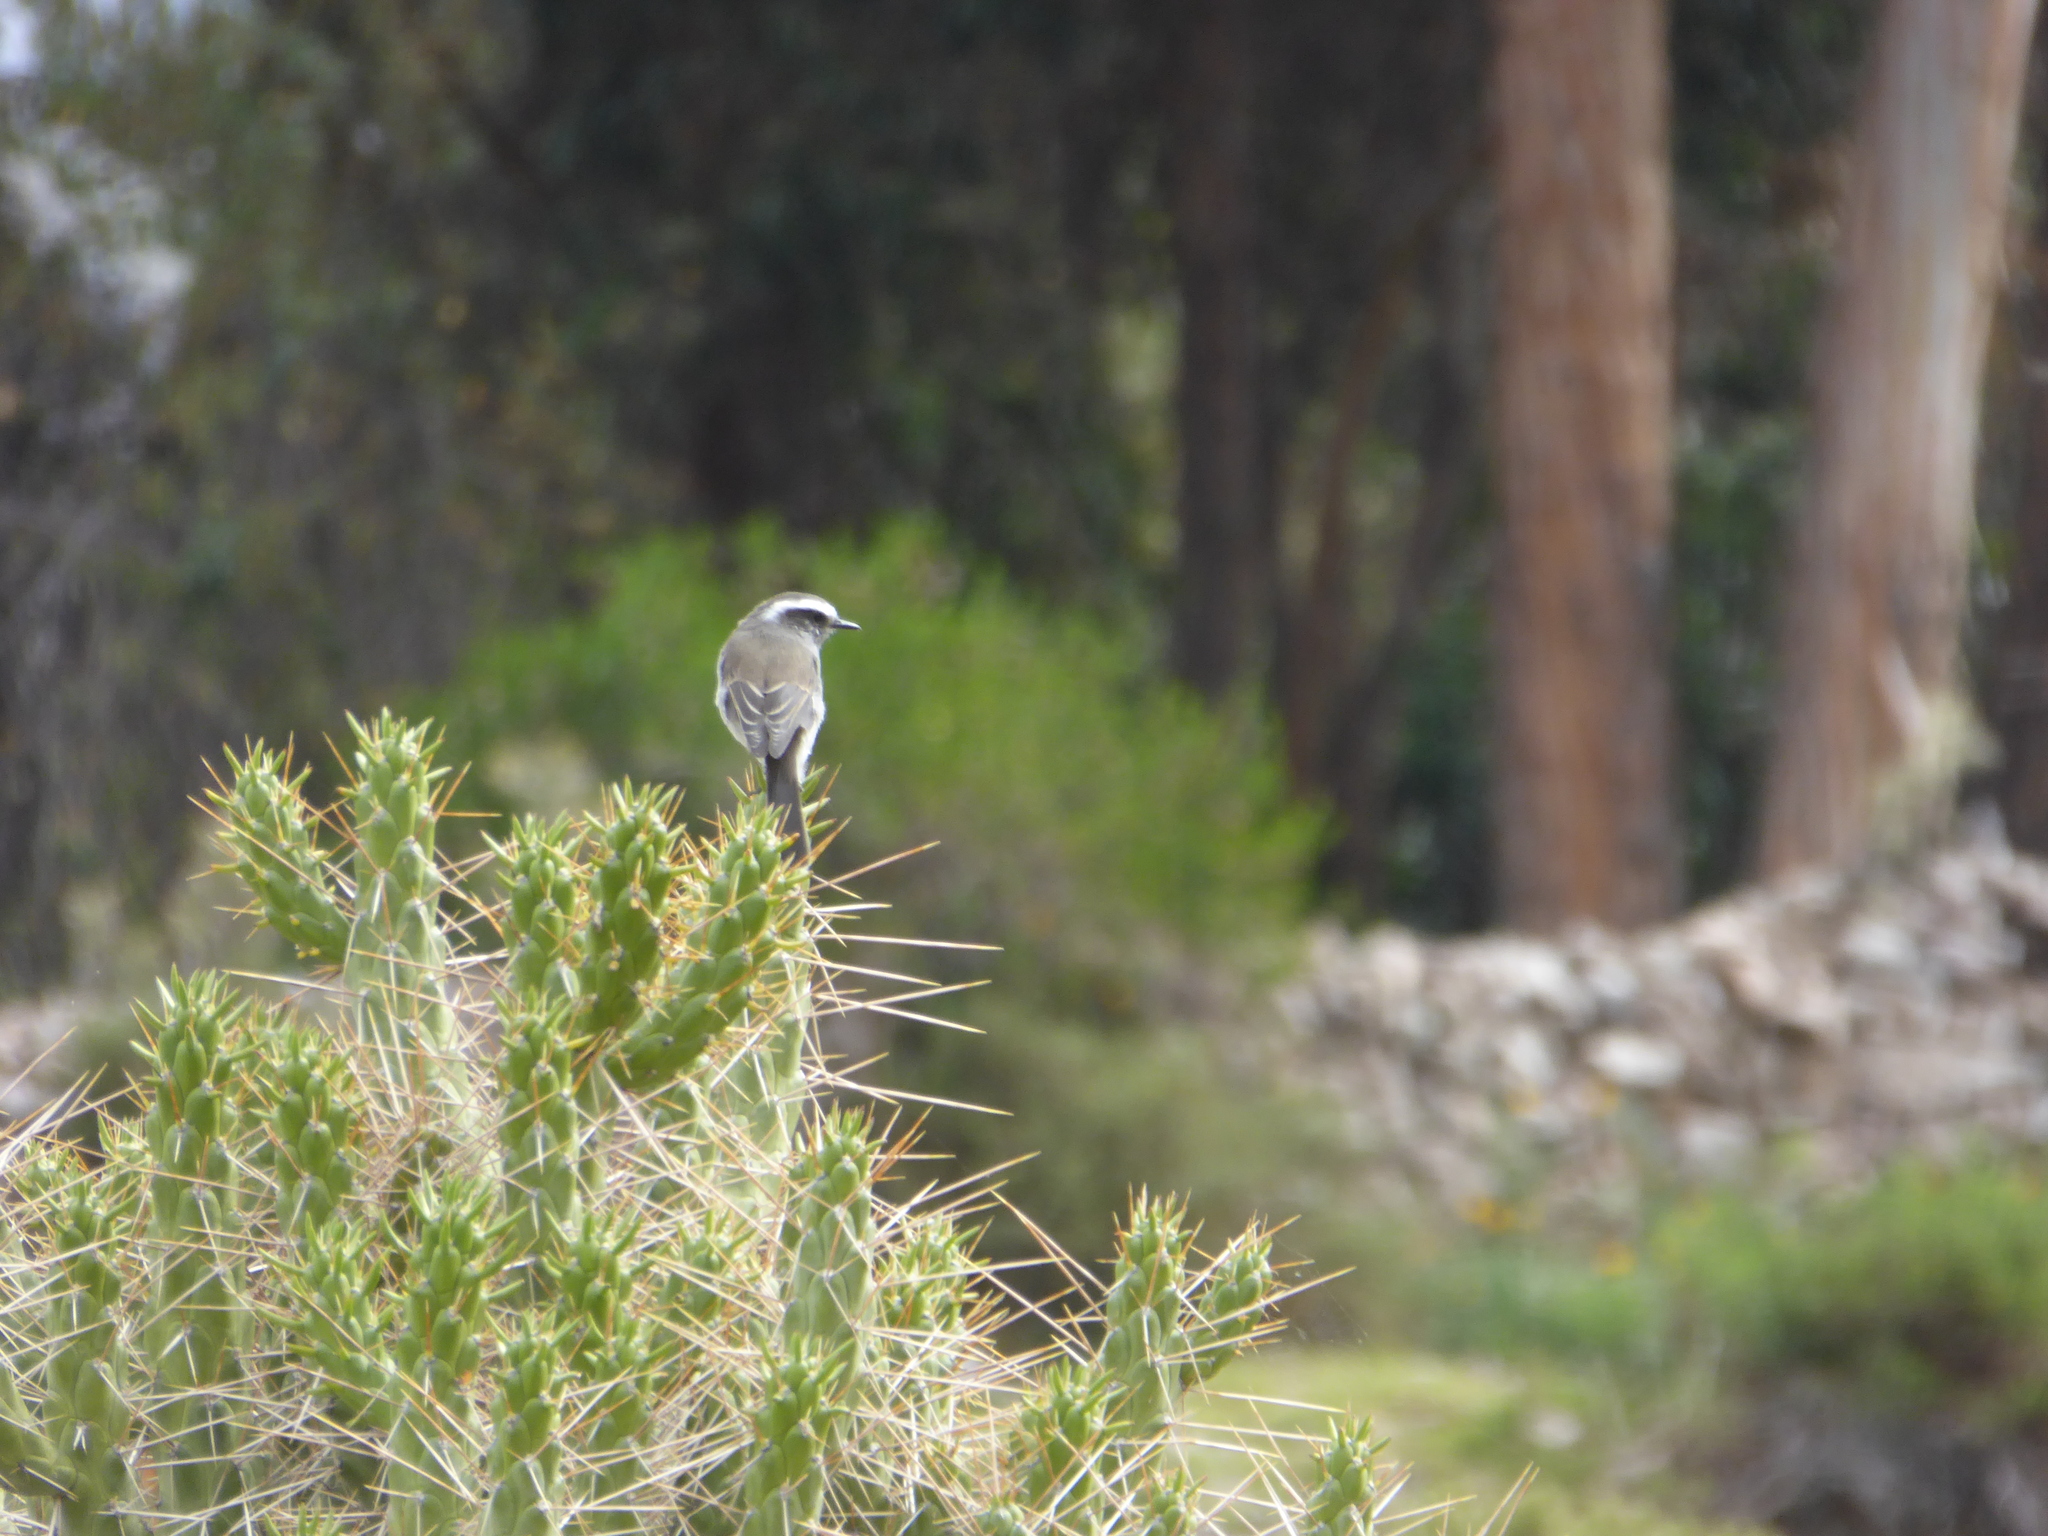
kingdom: Animalia
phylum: Chordata
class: Aves
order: Passeriformes
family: Tyrannidae
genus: Ochthoeca
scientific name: Ochthoeca leucophrys
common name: White-browed chat-tyrant
